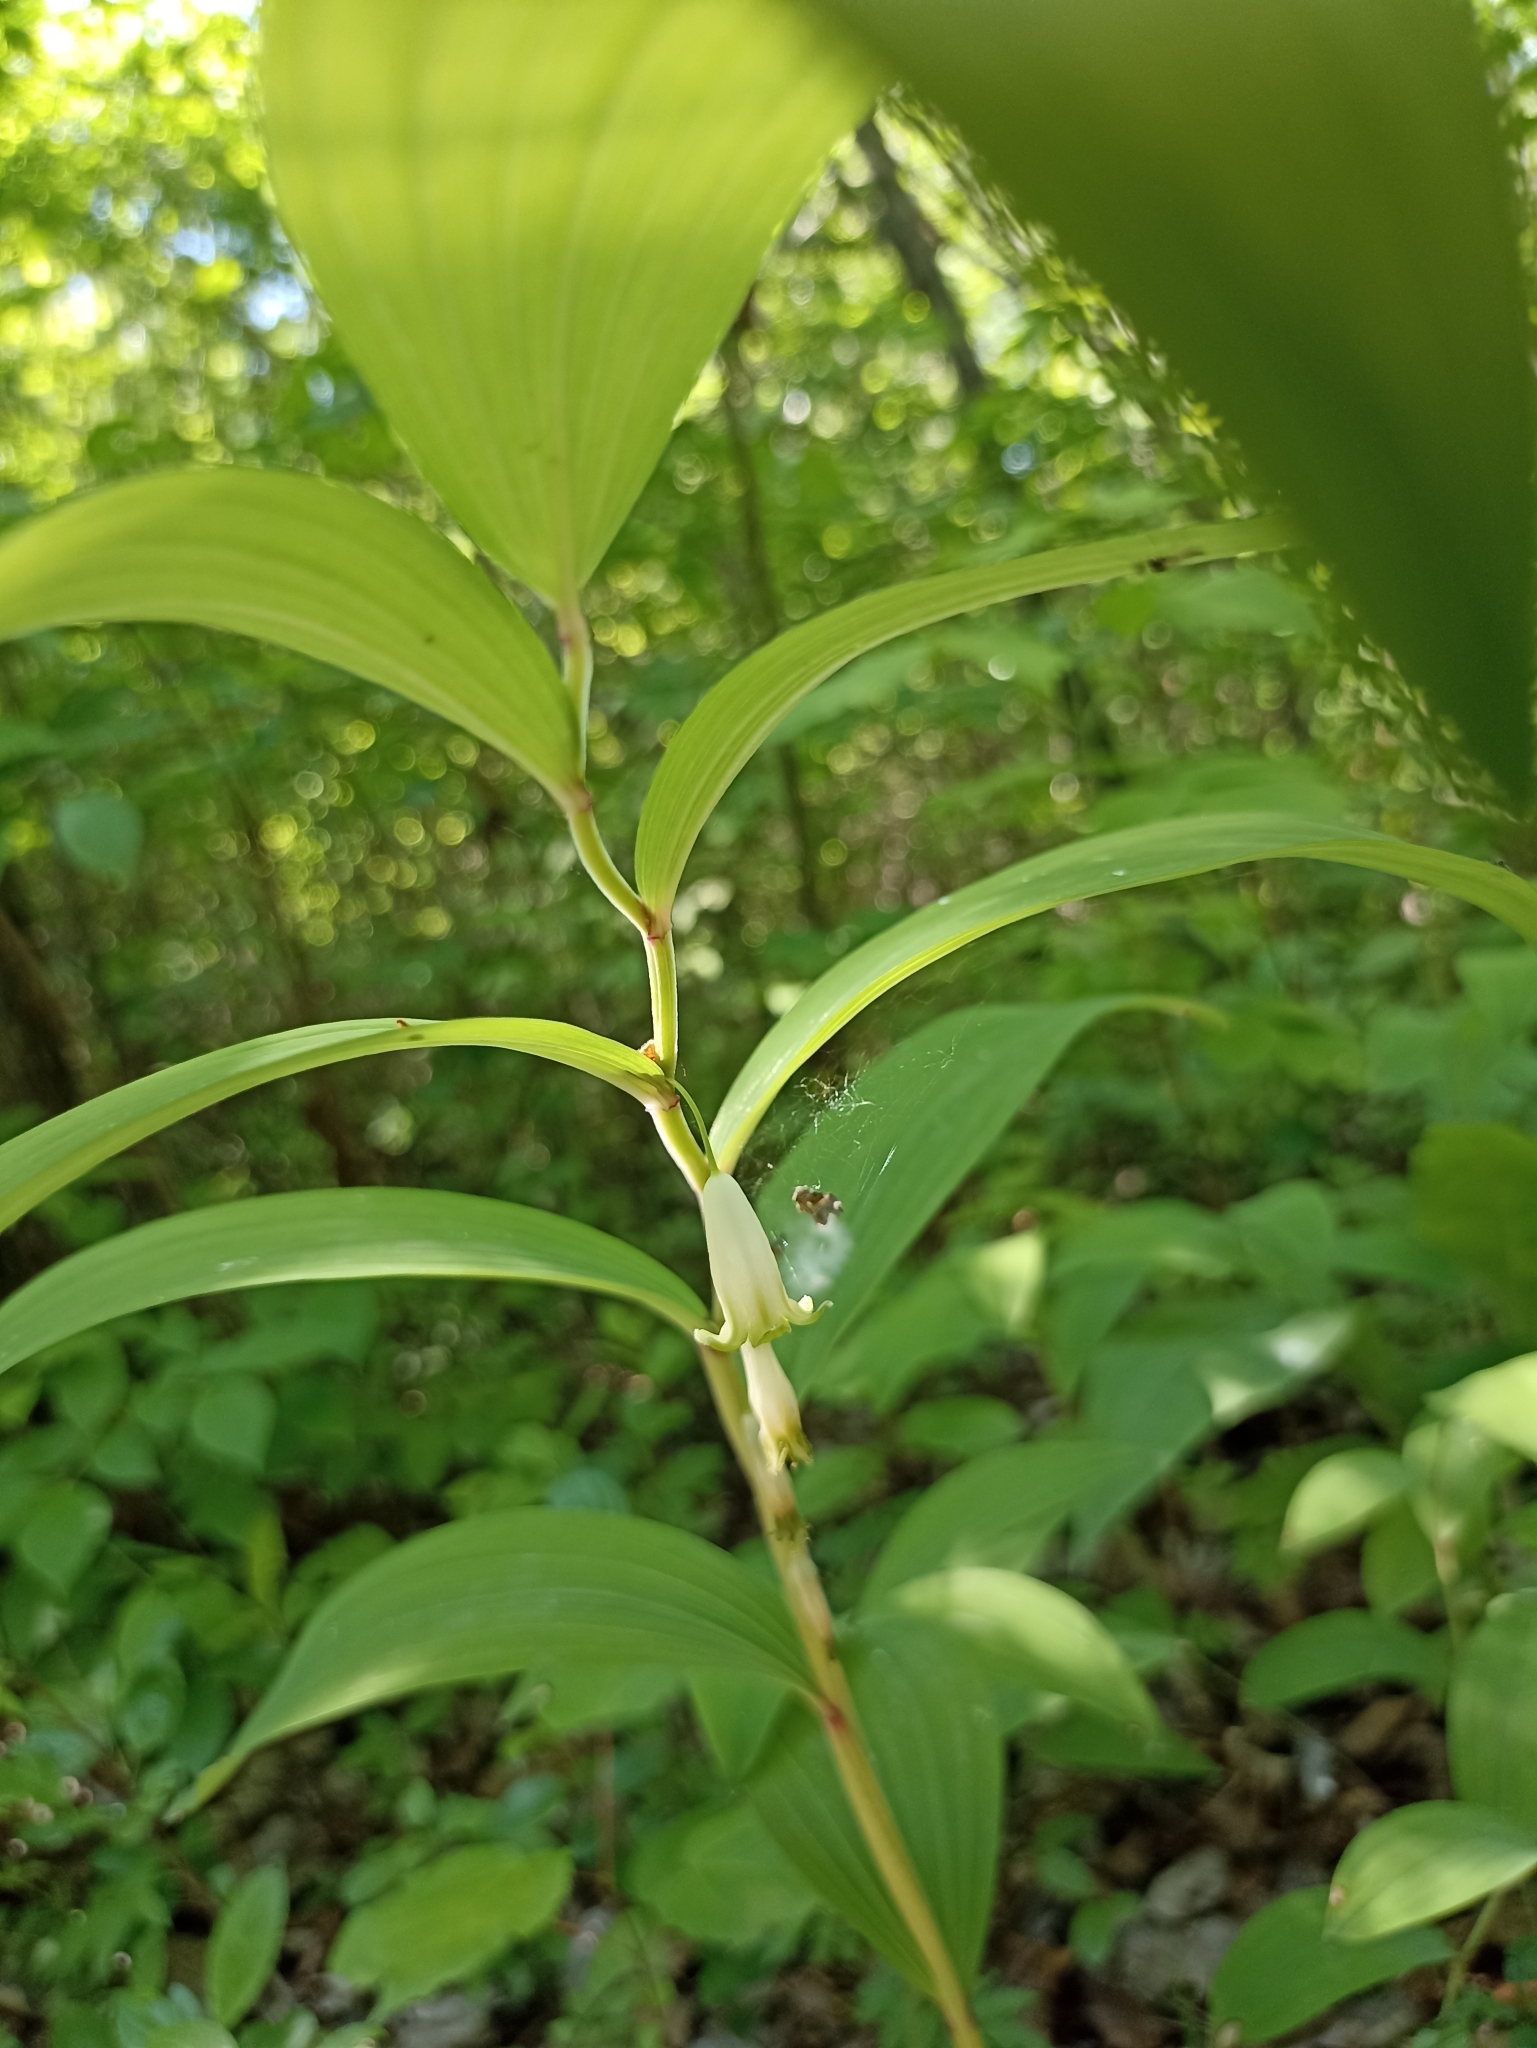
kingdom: Plantae
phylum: Tracheophyta
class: Liliopsida
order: Asparagales
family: Asparagaceae
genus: Polygonatum
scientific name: Polygonatum odoratum
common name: Angular solomon's-seal
